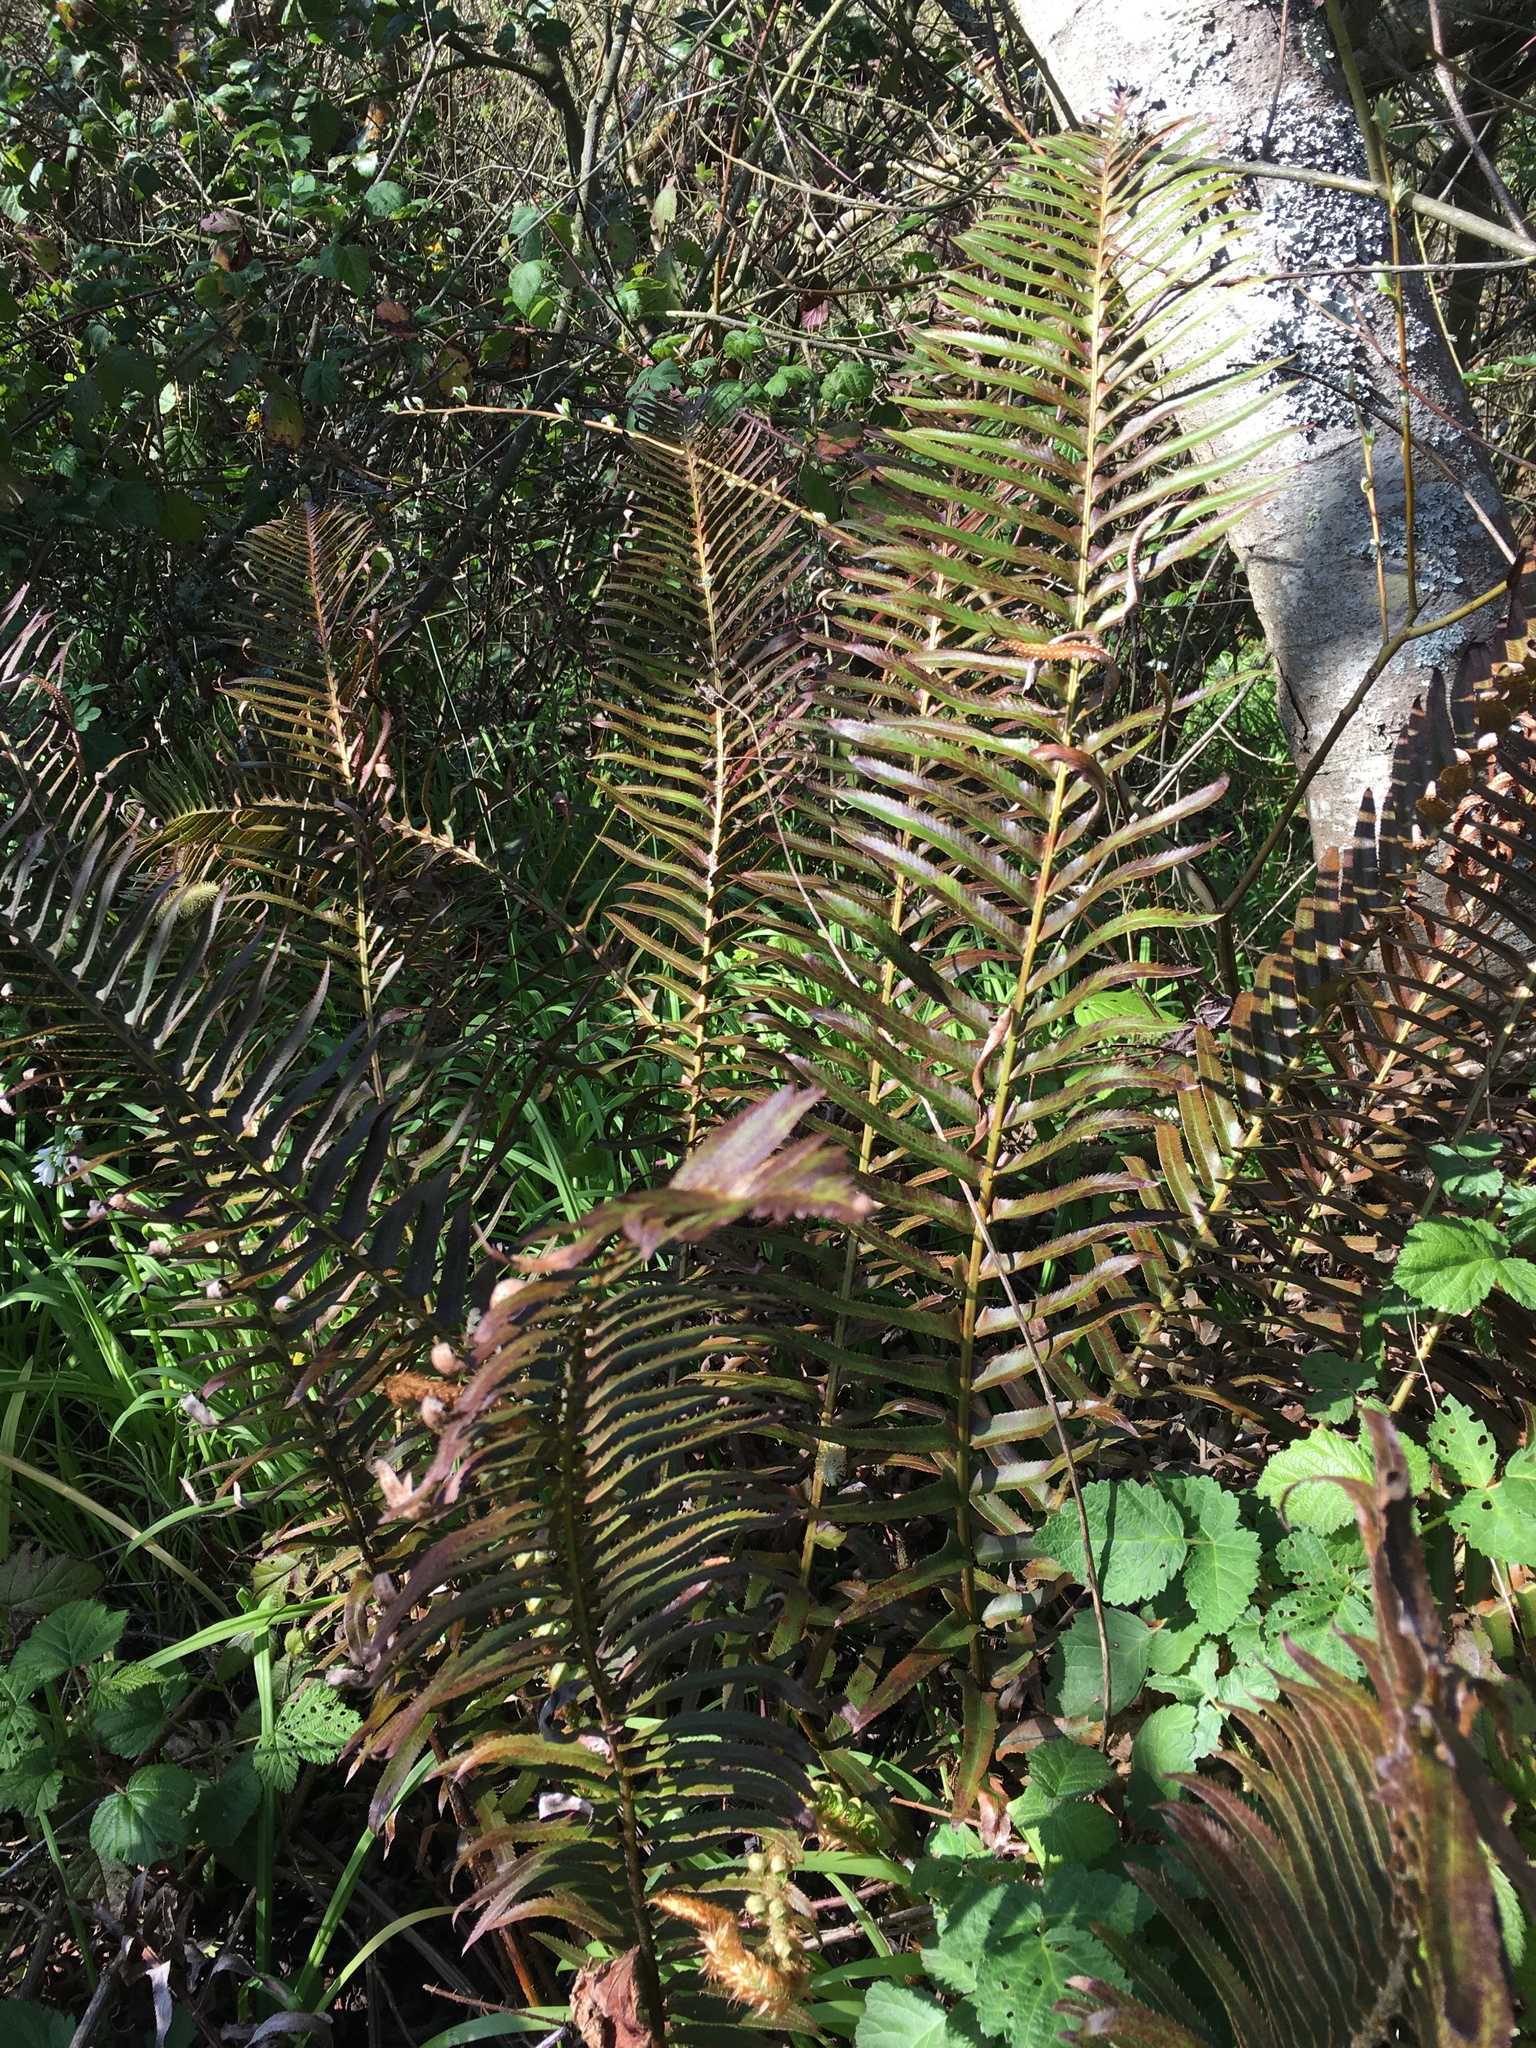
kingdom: Plantae
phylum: Tracheophyta
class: Polypodiopsida
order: Polypodiales
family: Dryopteridaceae
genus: Polystichum
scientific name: Polystichum munitum
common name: Western sword-fern
